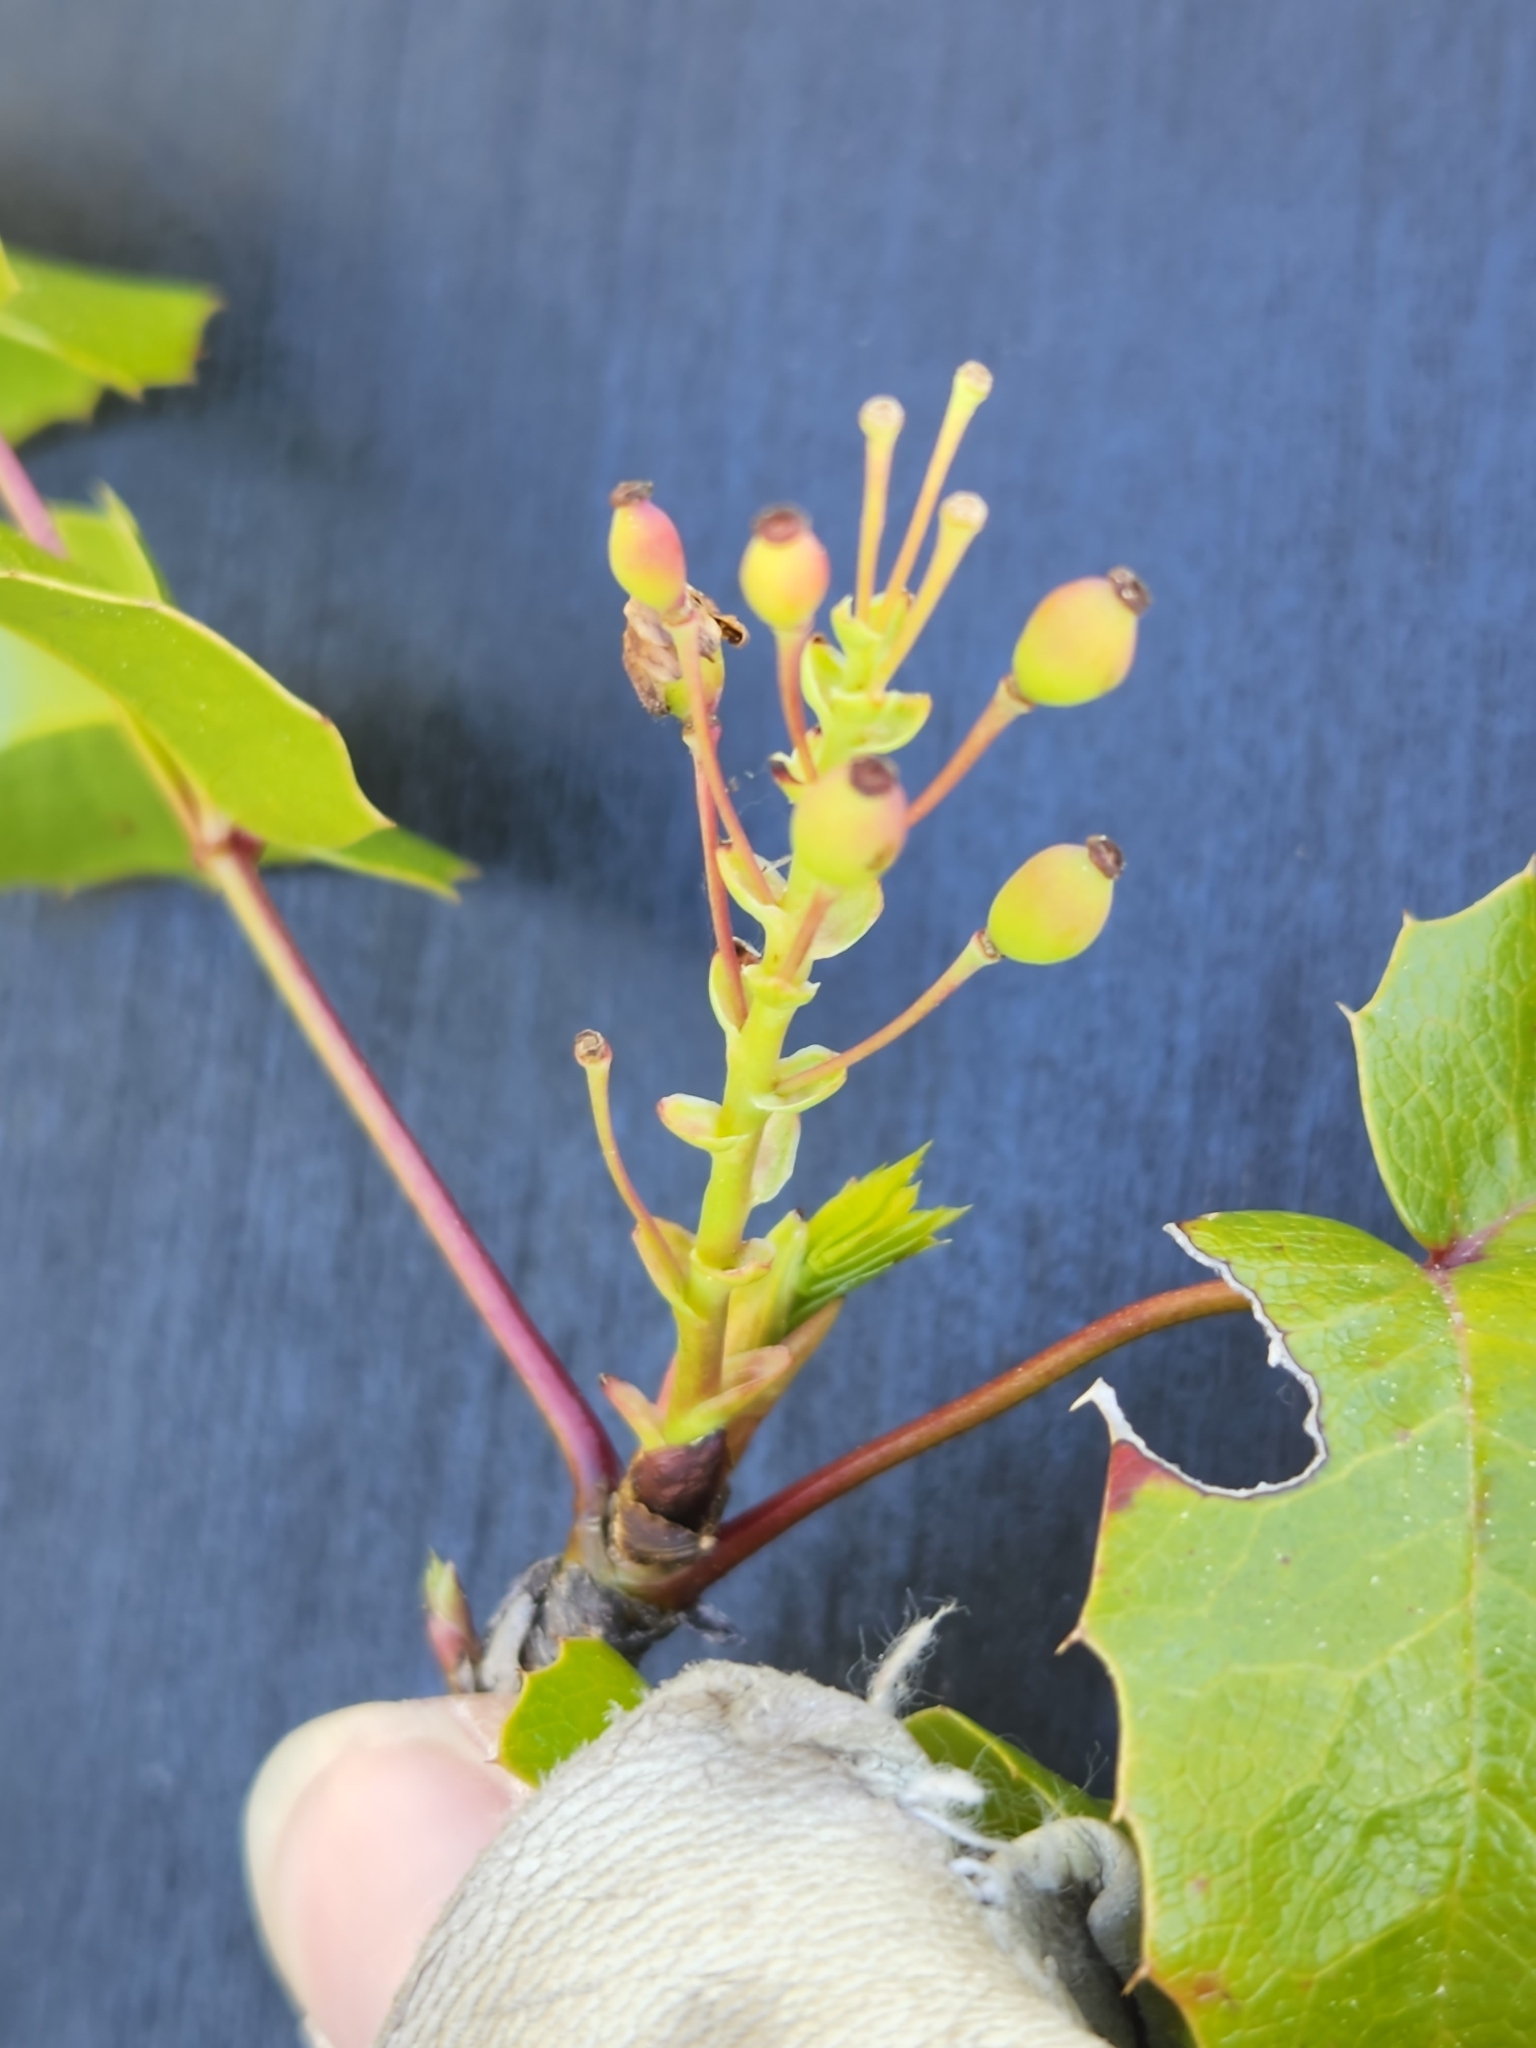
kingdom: Plantae
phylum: Tracheophyta
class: Magnoliopsida
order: Ranunculales
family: Berberidaceae
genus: Mahonia
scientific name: Mahonia aquifolium
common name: Oregon-grape
